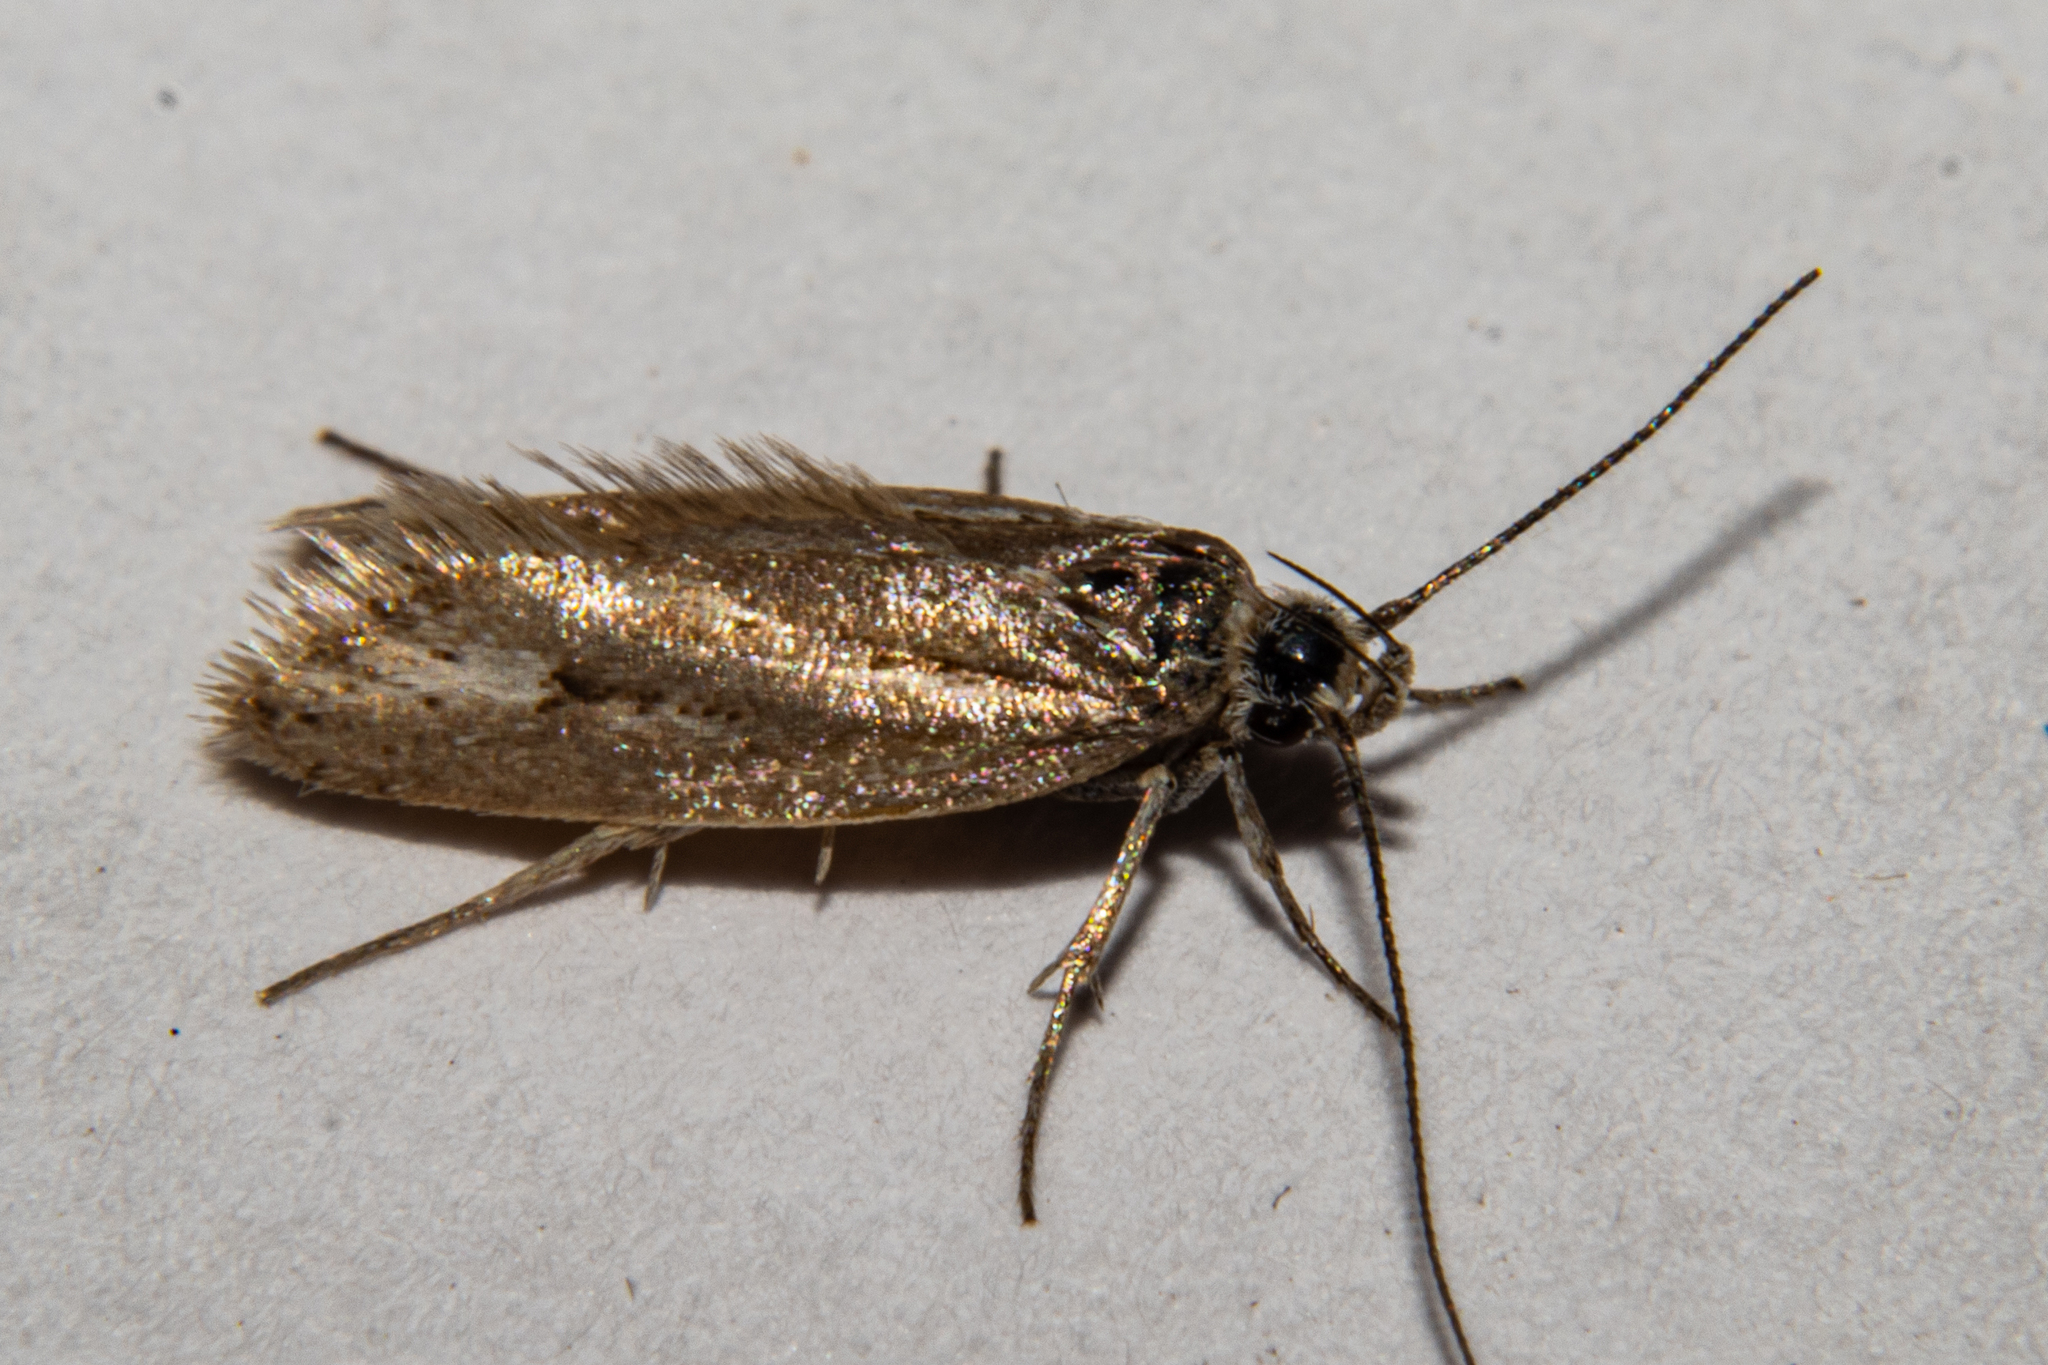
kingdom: Animalia
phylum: Arthropoda
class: Insecta
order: Lepidoptera
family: Oecophoridae
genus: Prepalla
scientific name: Prepalla
